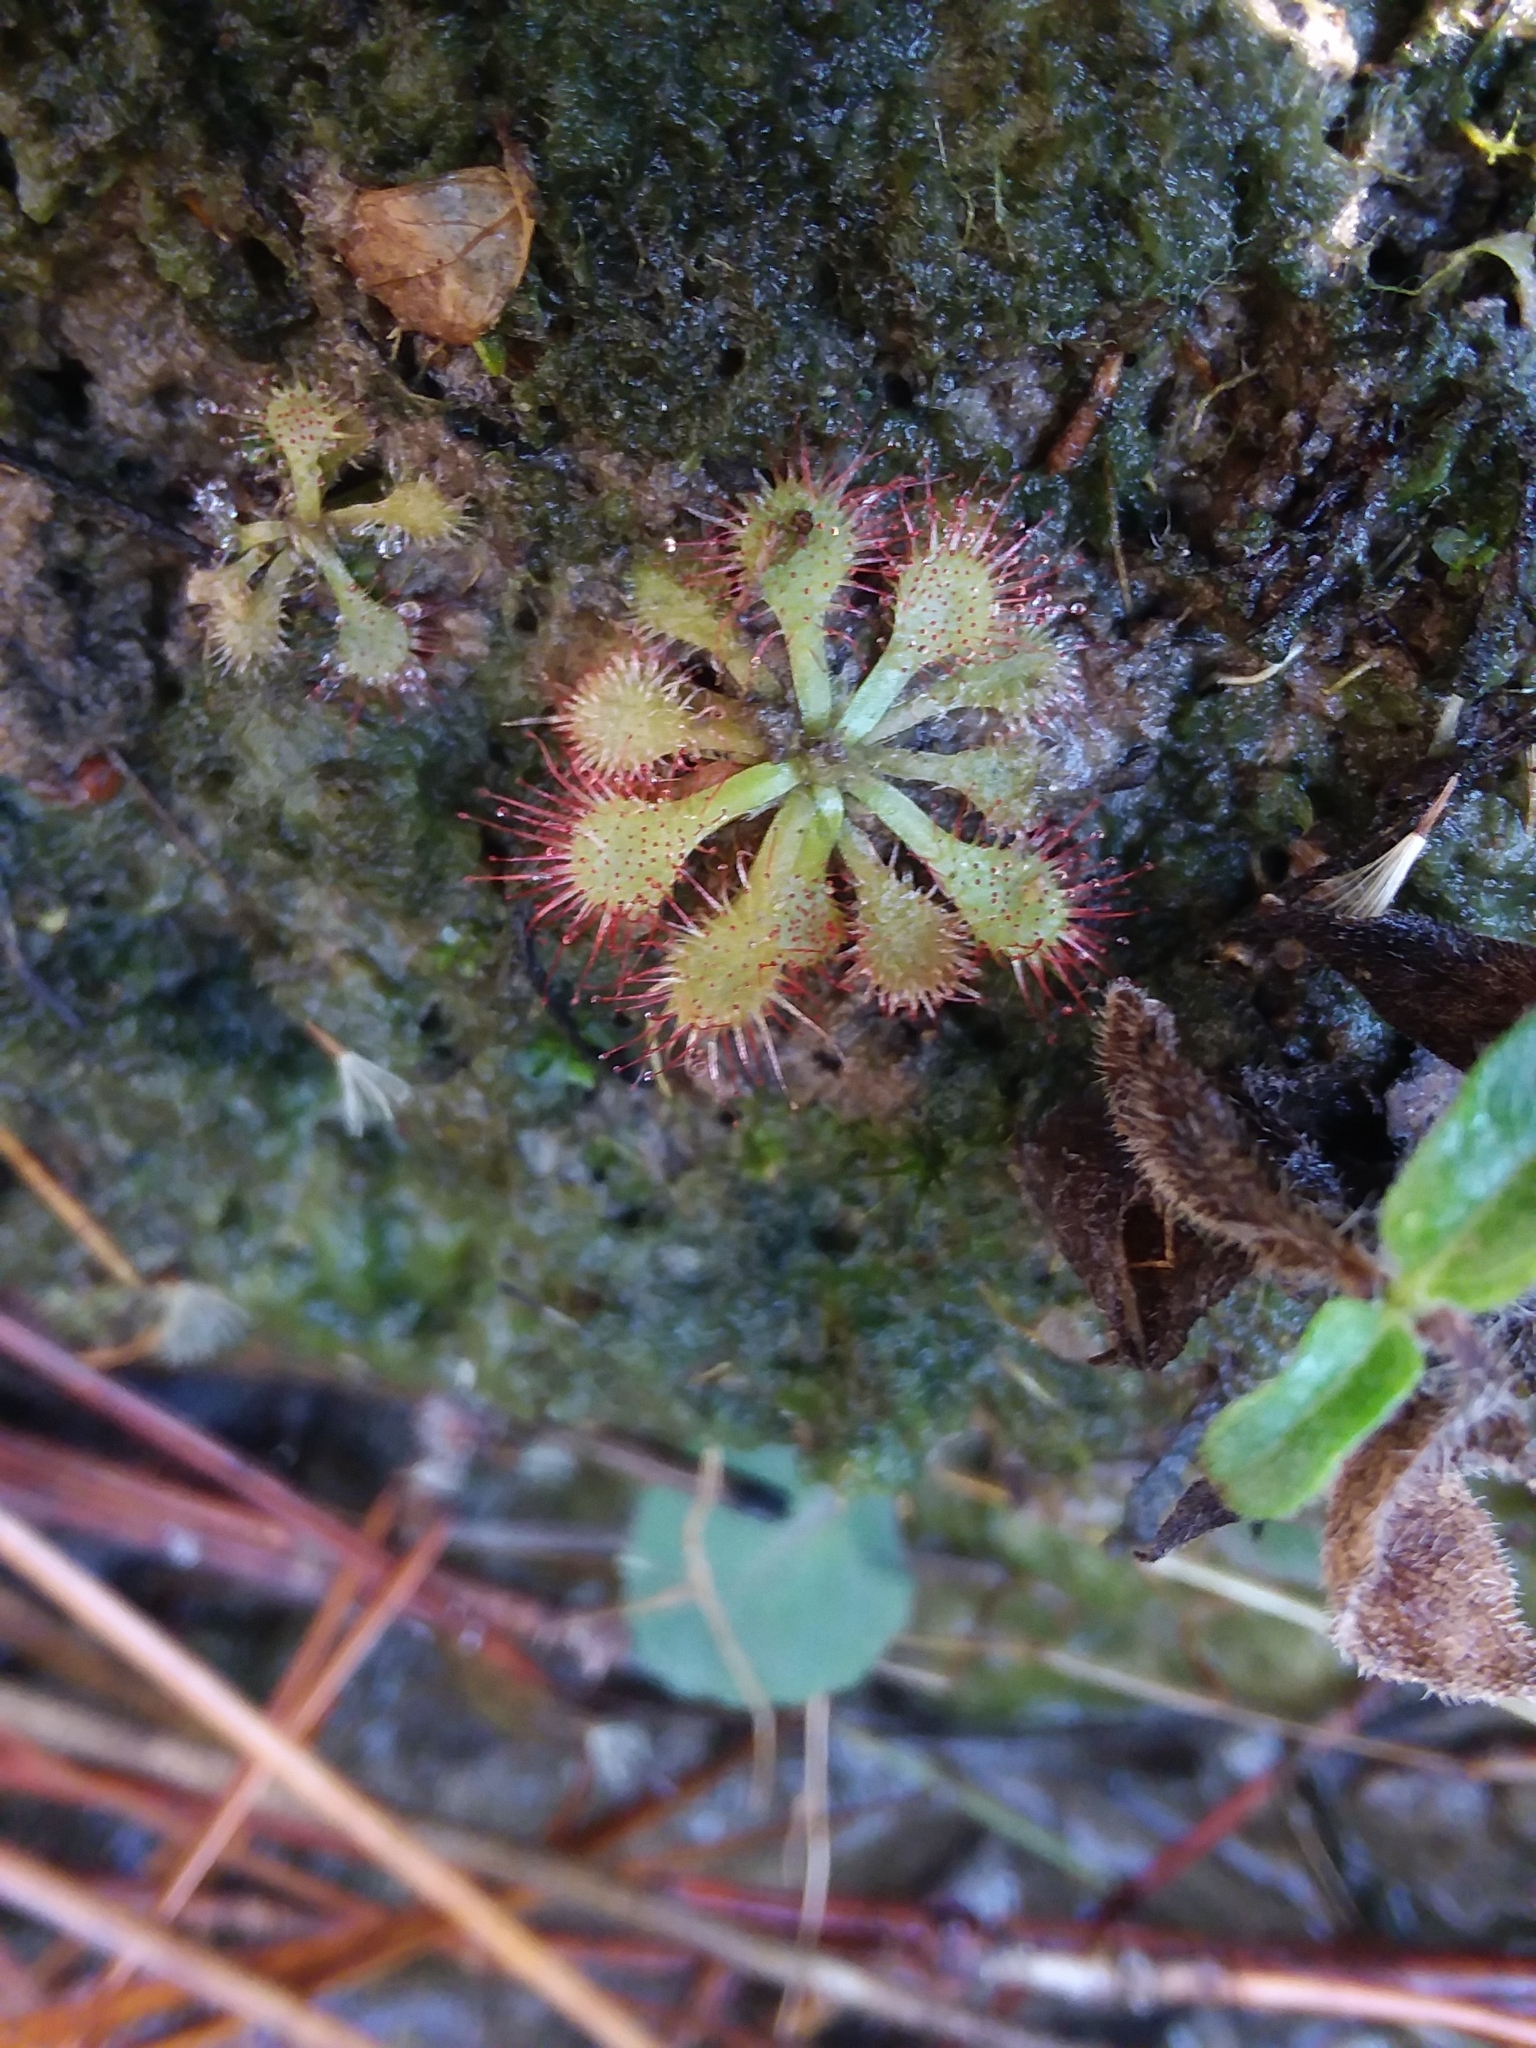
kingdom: Plantae
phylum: Tracheophyta
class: Magnoliopsida
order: Caryophyllales
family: Droseraceae
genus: Drosera
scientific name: Drosera capillaris
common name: Pink sundew
